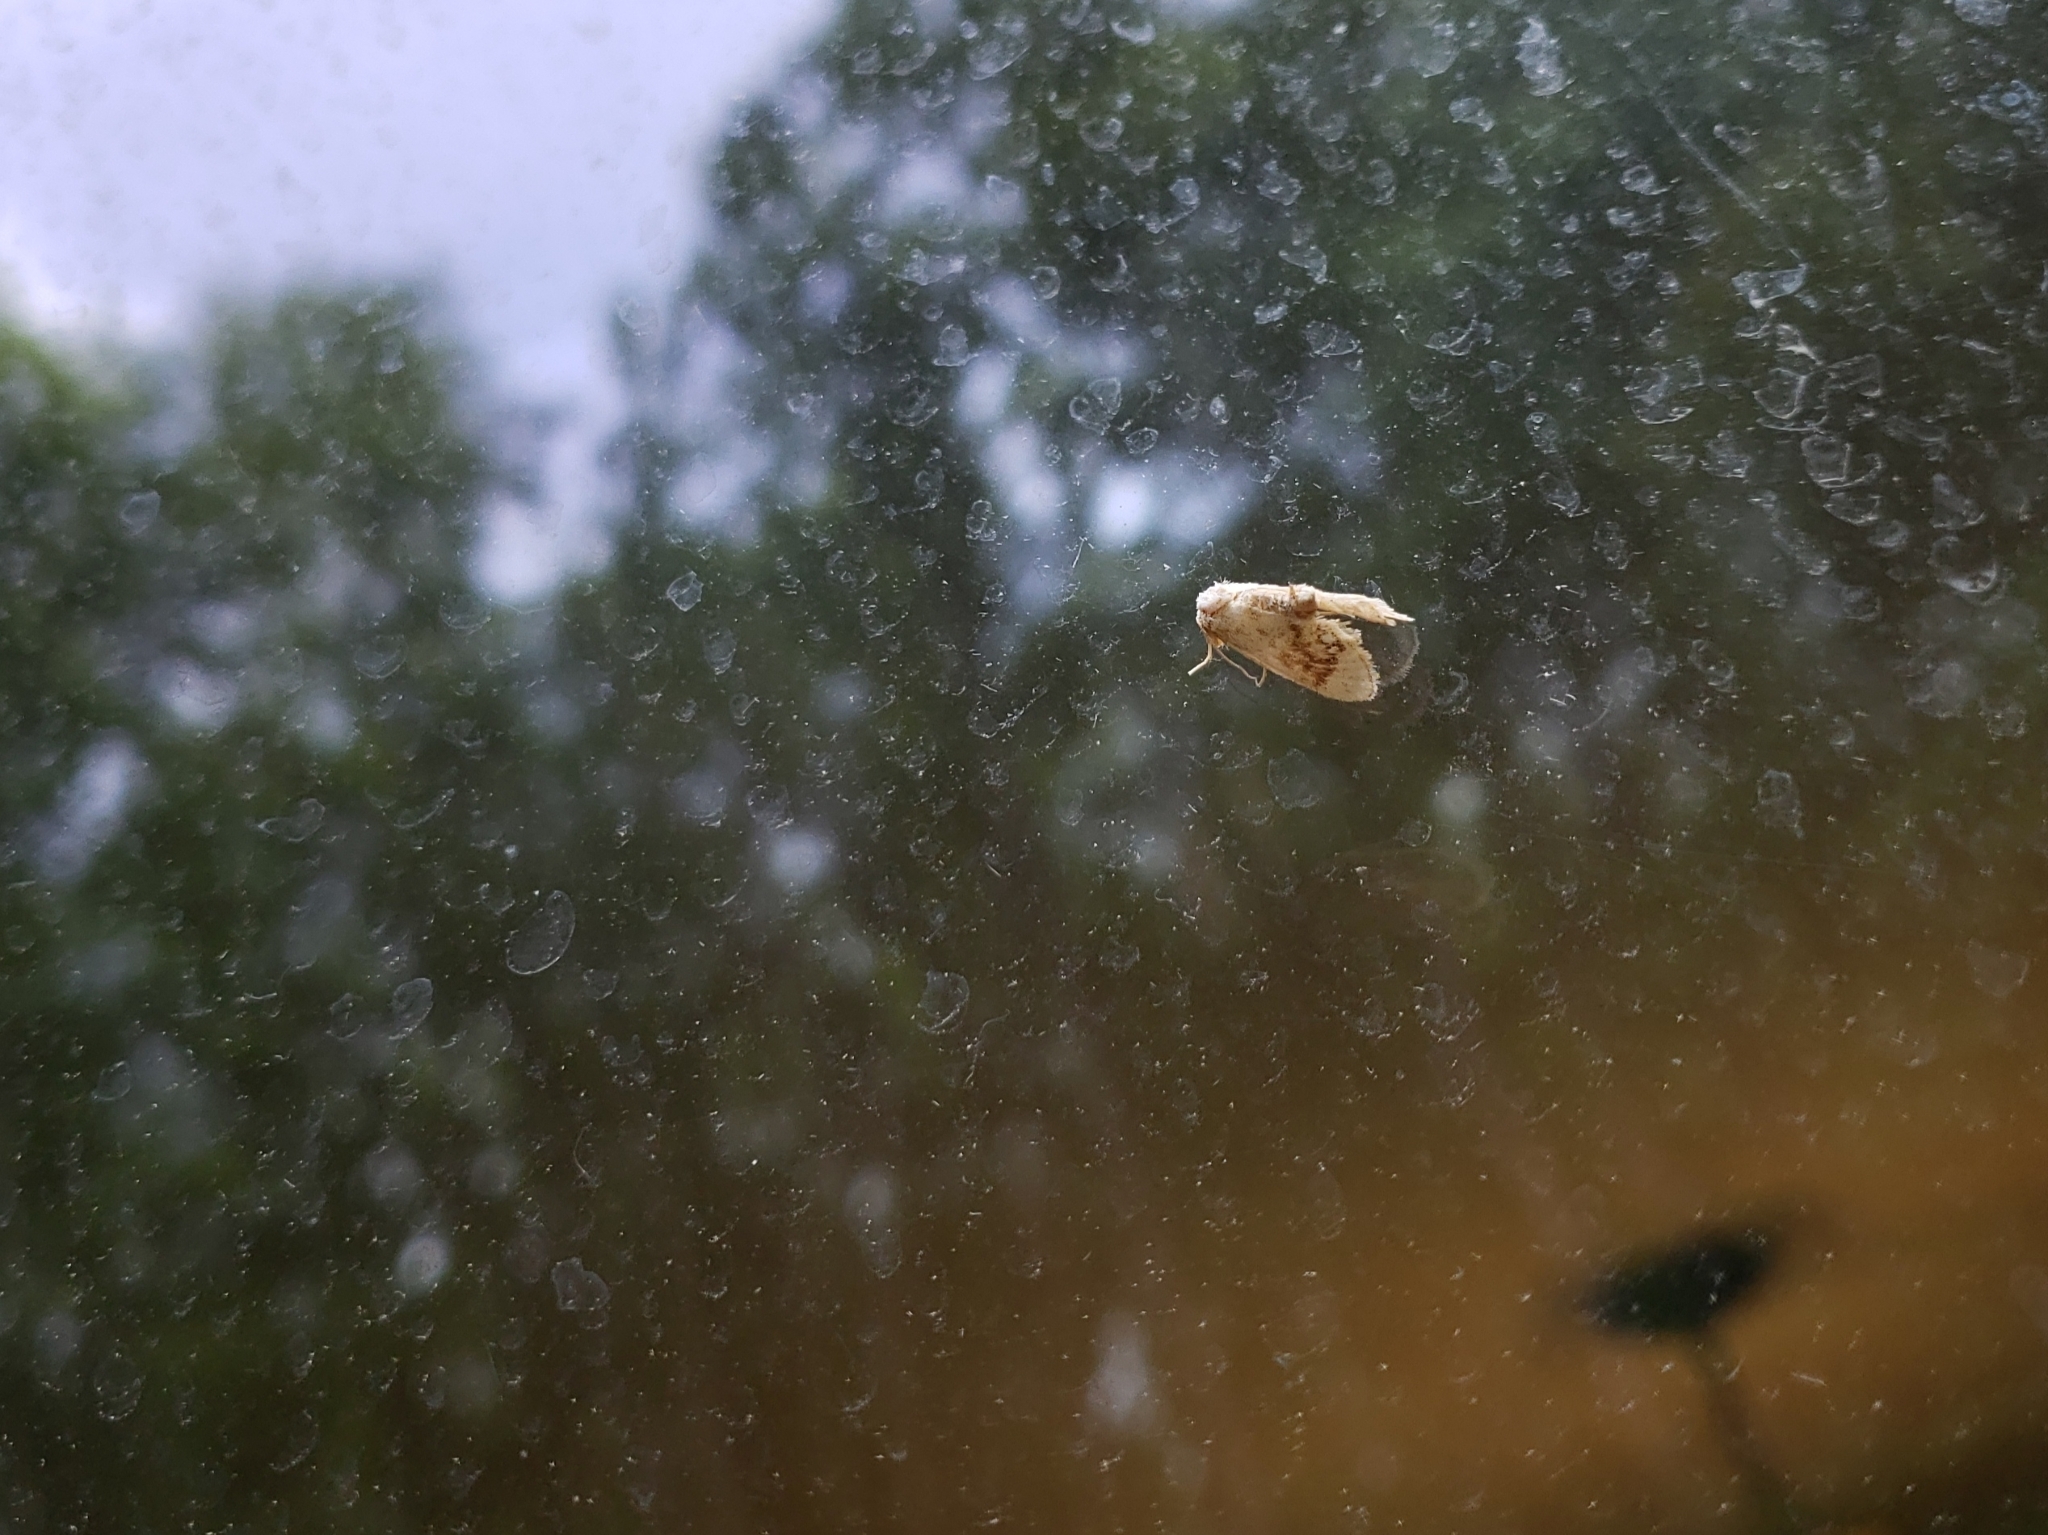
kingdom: Animalia
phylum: Arthropoda
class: Insecta
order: Lepidoptera
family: Limacodidae
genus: Packardia
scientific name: Packardia geminata
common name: Jeweled tailed slug moth
